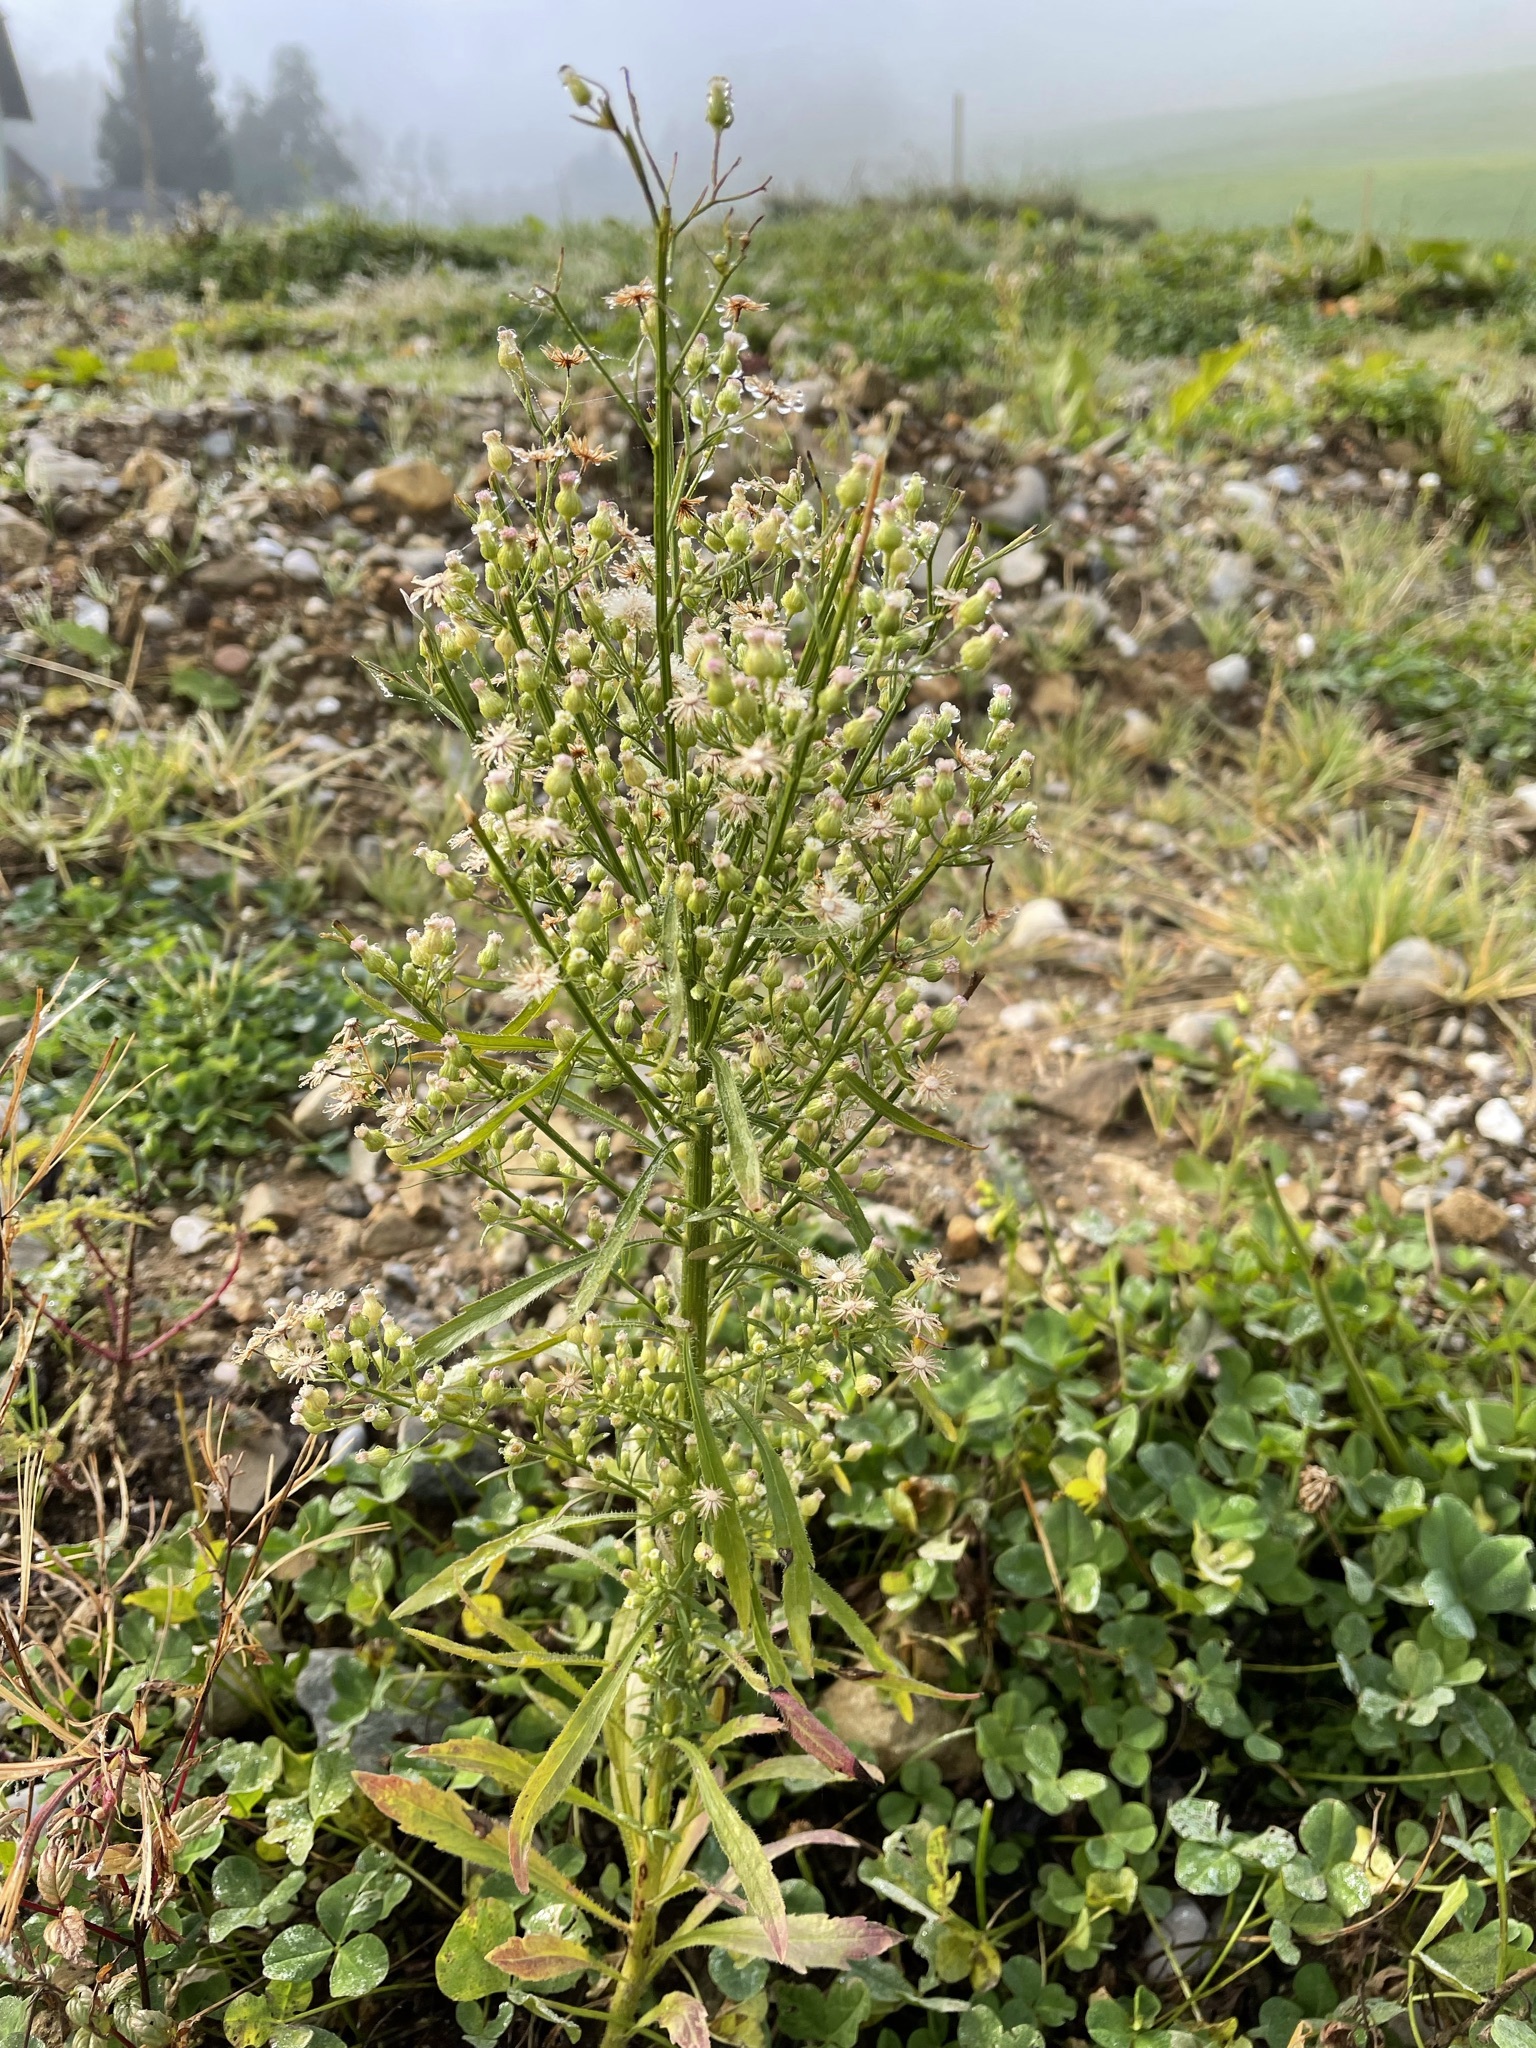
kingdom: Plantae
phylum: Tracheophyta
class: Magnoliopsida
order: Asterales
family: Asteraceae
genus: Erigeron
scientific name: Erigeron canadensis
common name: Canadian fleabane
